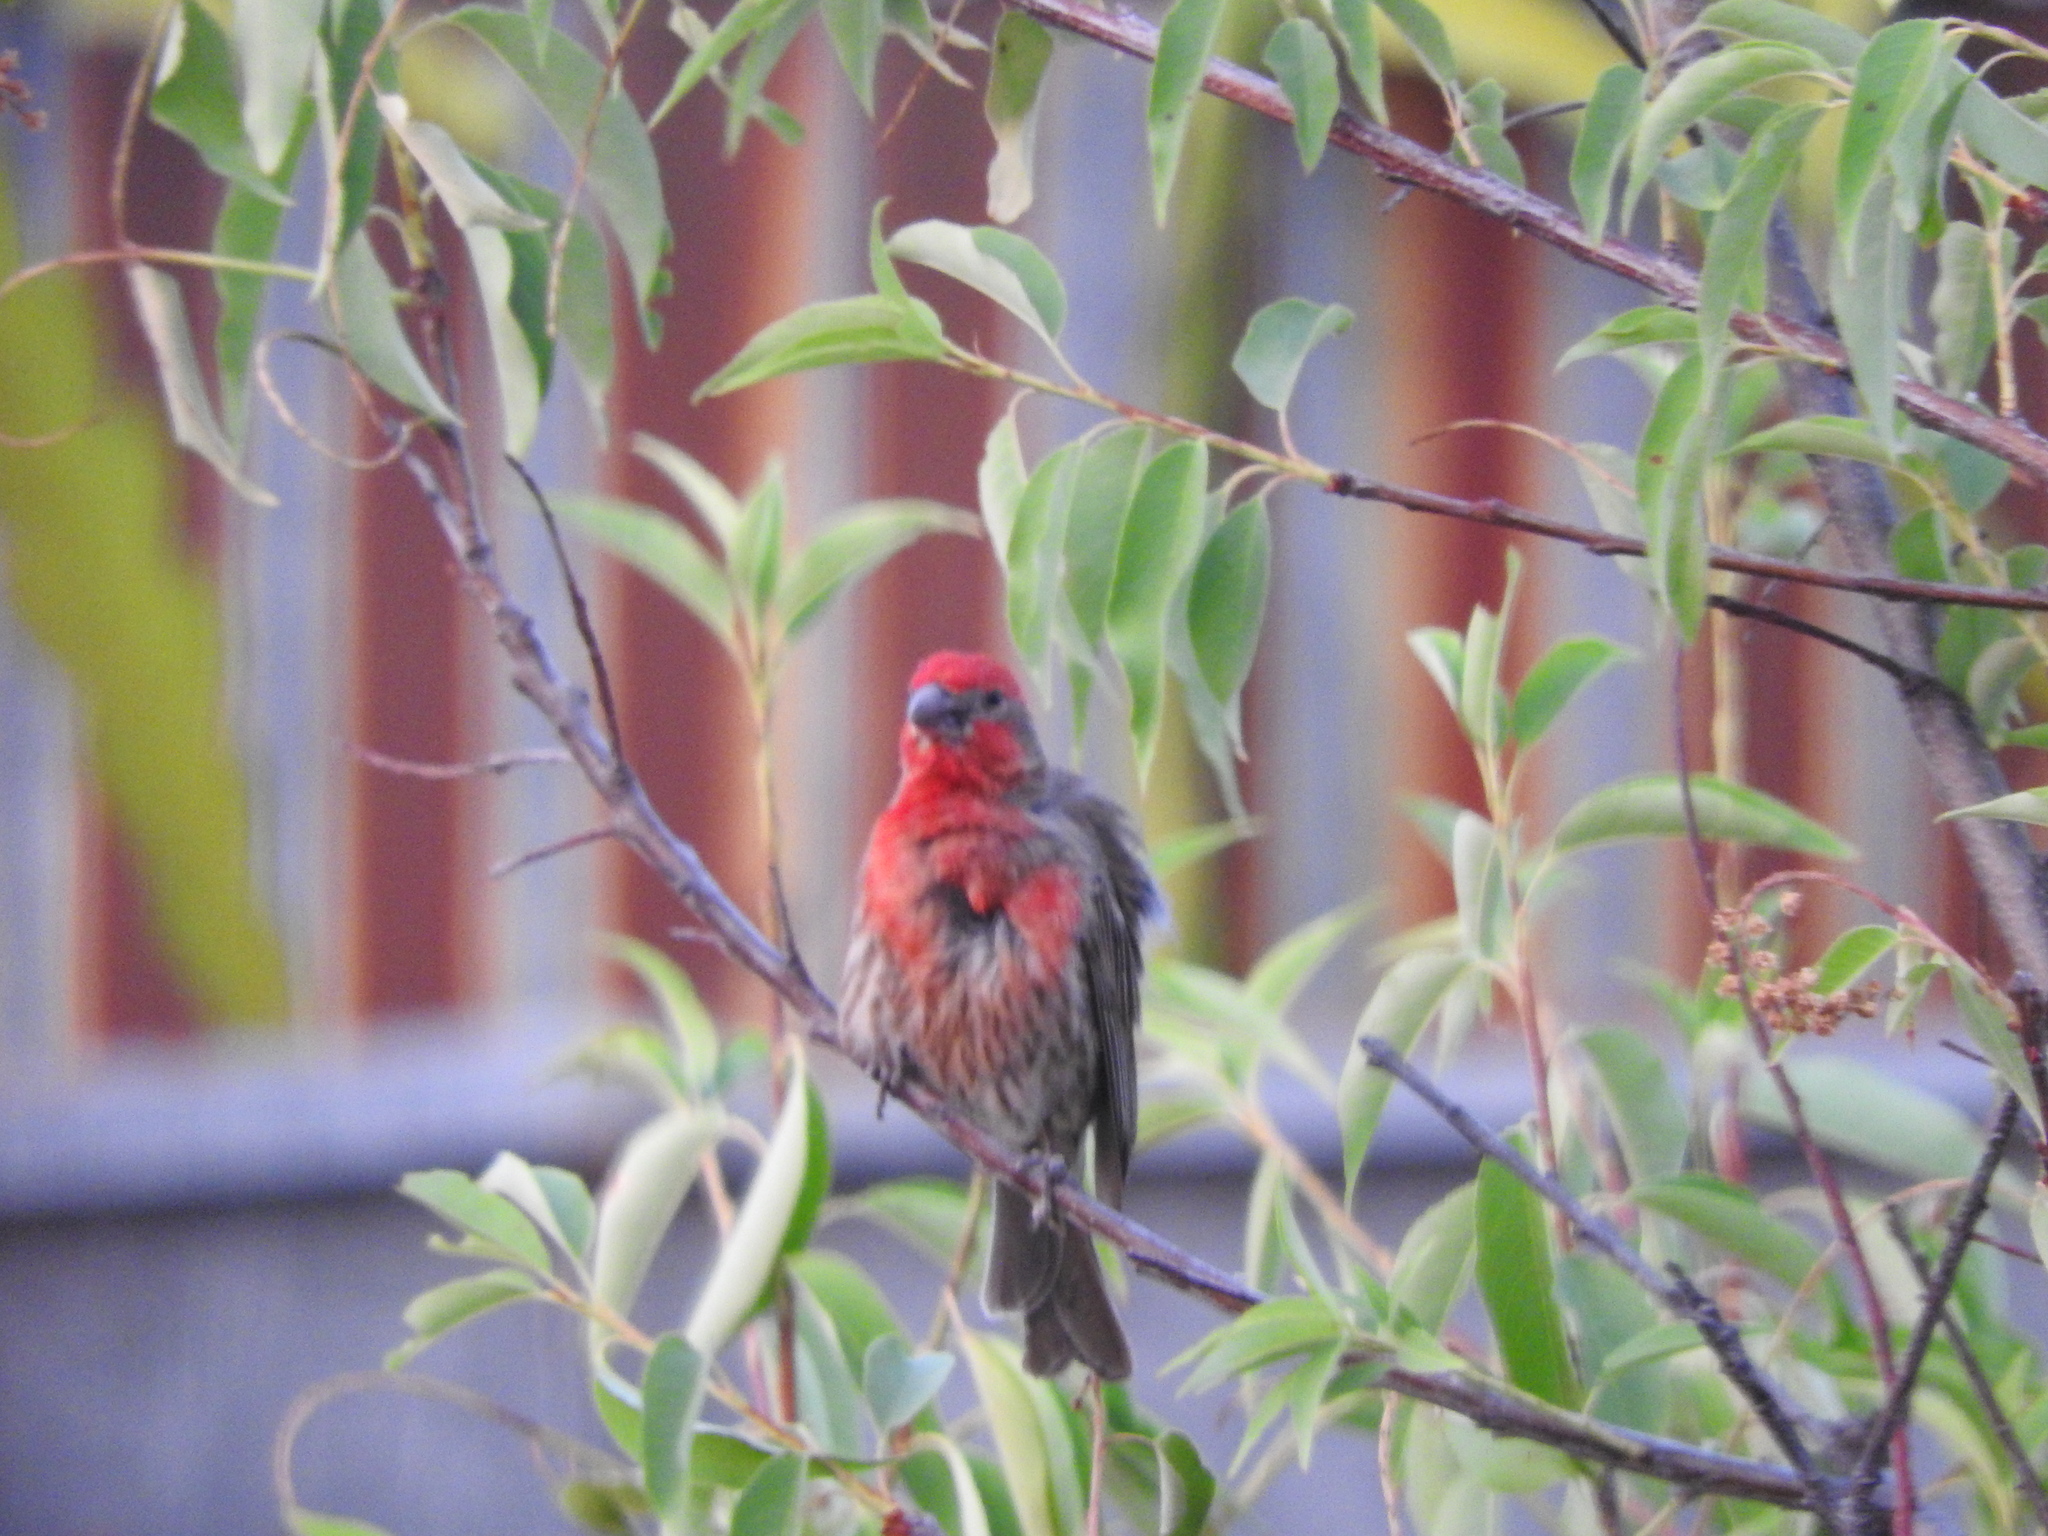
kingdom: Animalia
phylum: Chordata
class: Aves
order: Passeriformes
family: Fringillidae
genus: Haemorhous
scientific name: Haemorhous mexicanus
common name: House finch
